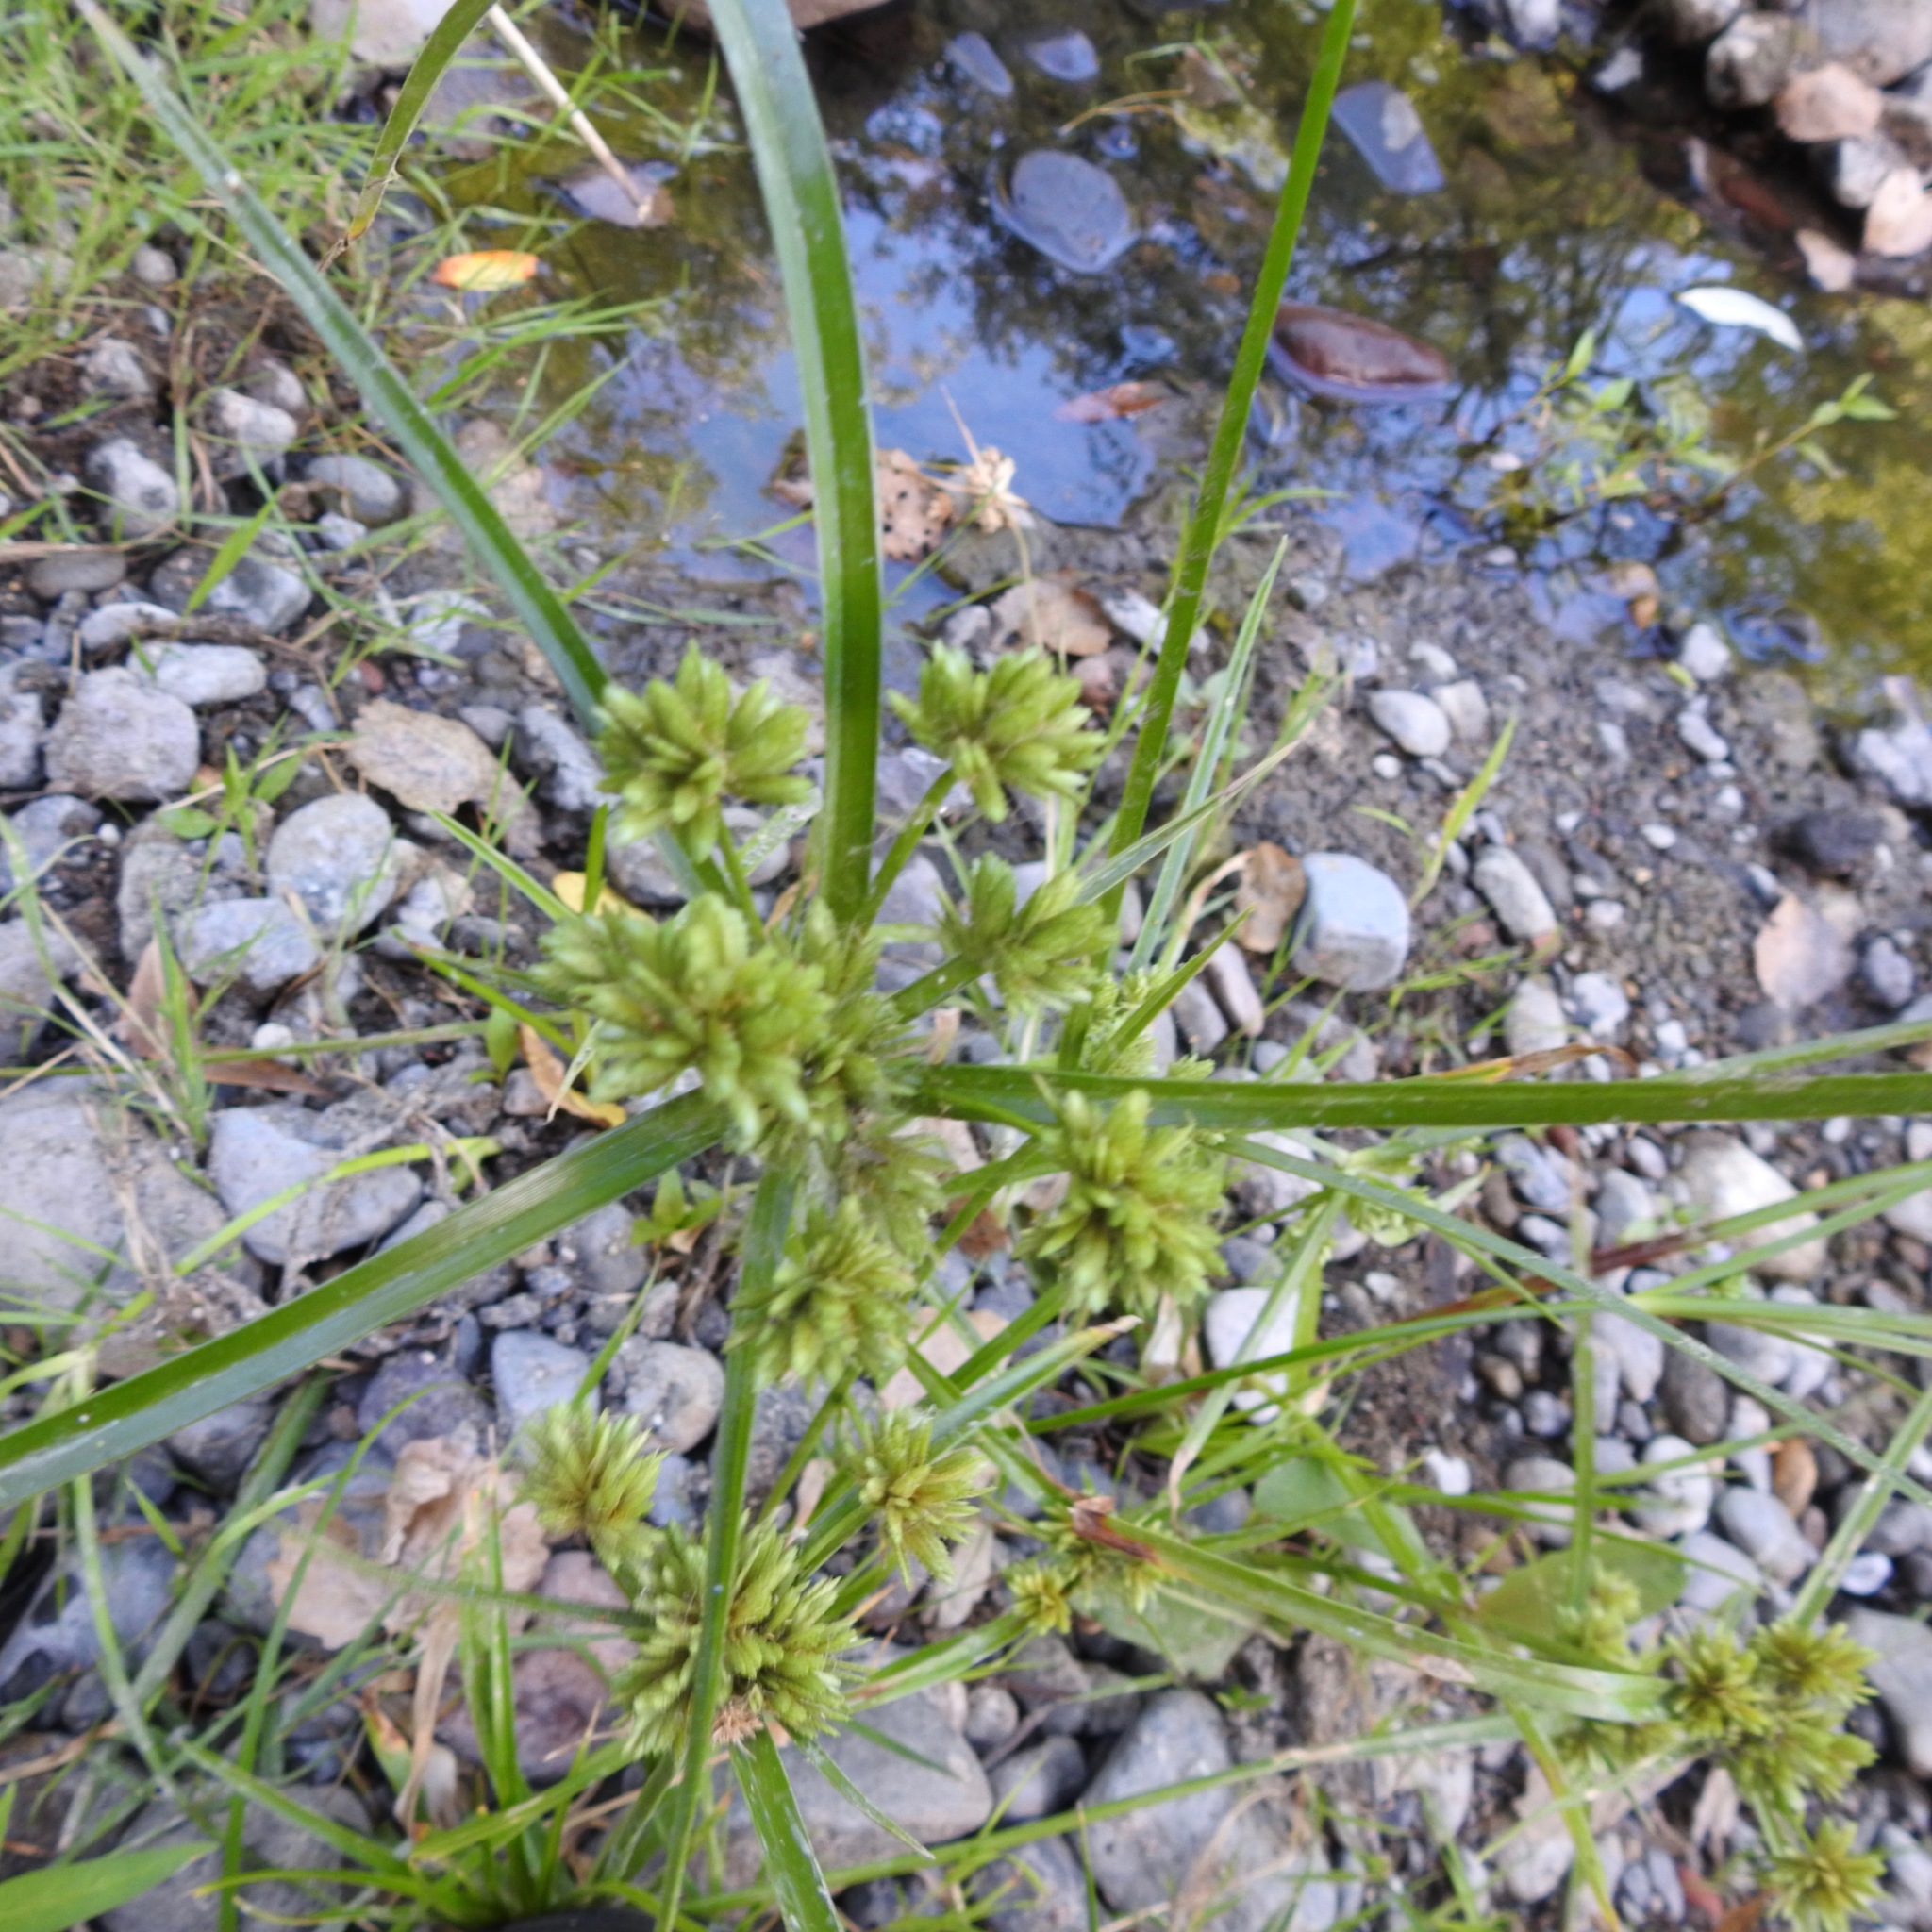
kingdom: Plantae
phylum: Tracheophyta
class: Liliopsida
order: Poales
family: Cyperaceae
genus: Cyperus
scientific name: Cyperus eragrostis
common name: Tall flatsedge
